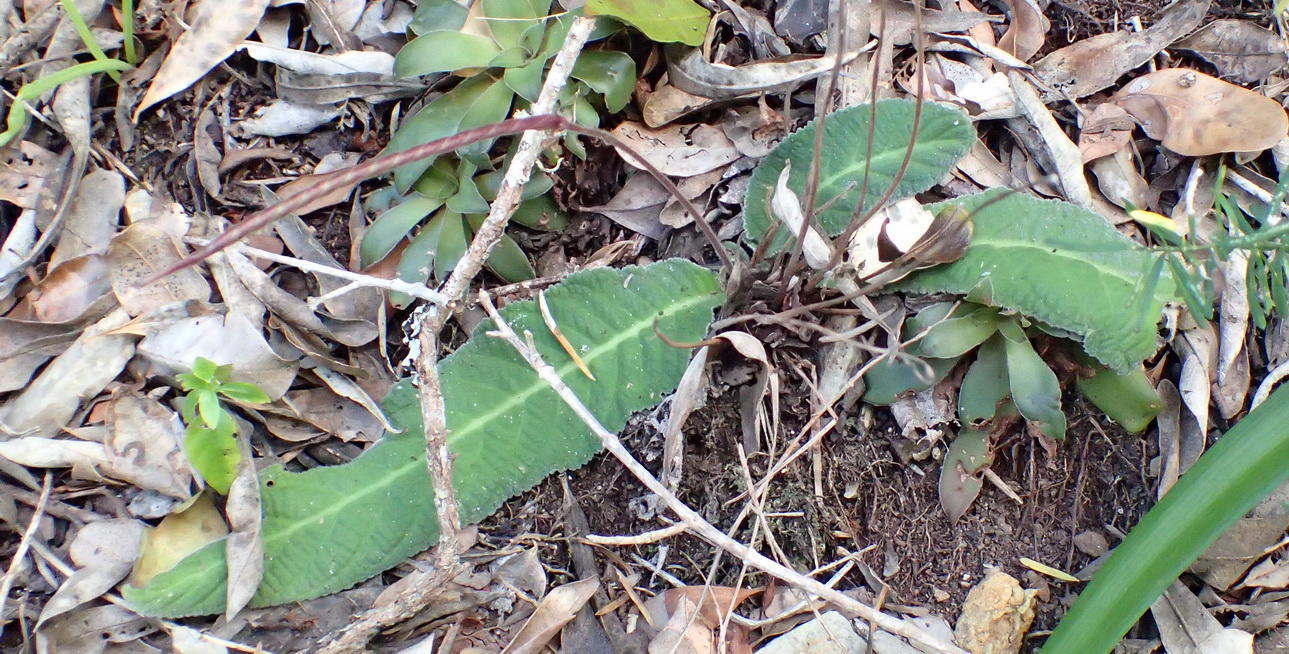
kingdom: Plantae
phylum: Tracheophyta
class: Magnoliopsida
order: Lamiales
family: Gesneriaceae
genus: Streptocarpus
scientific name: Streptocarpus rexii
